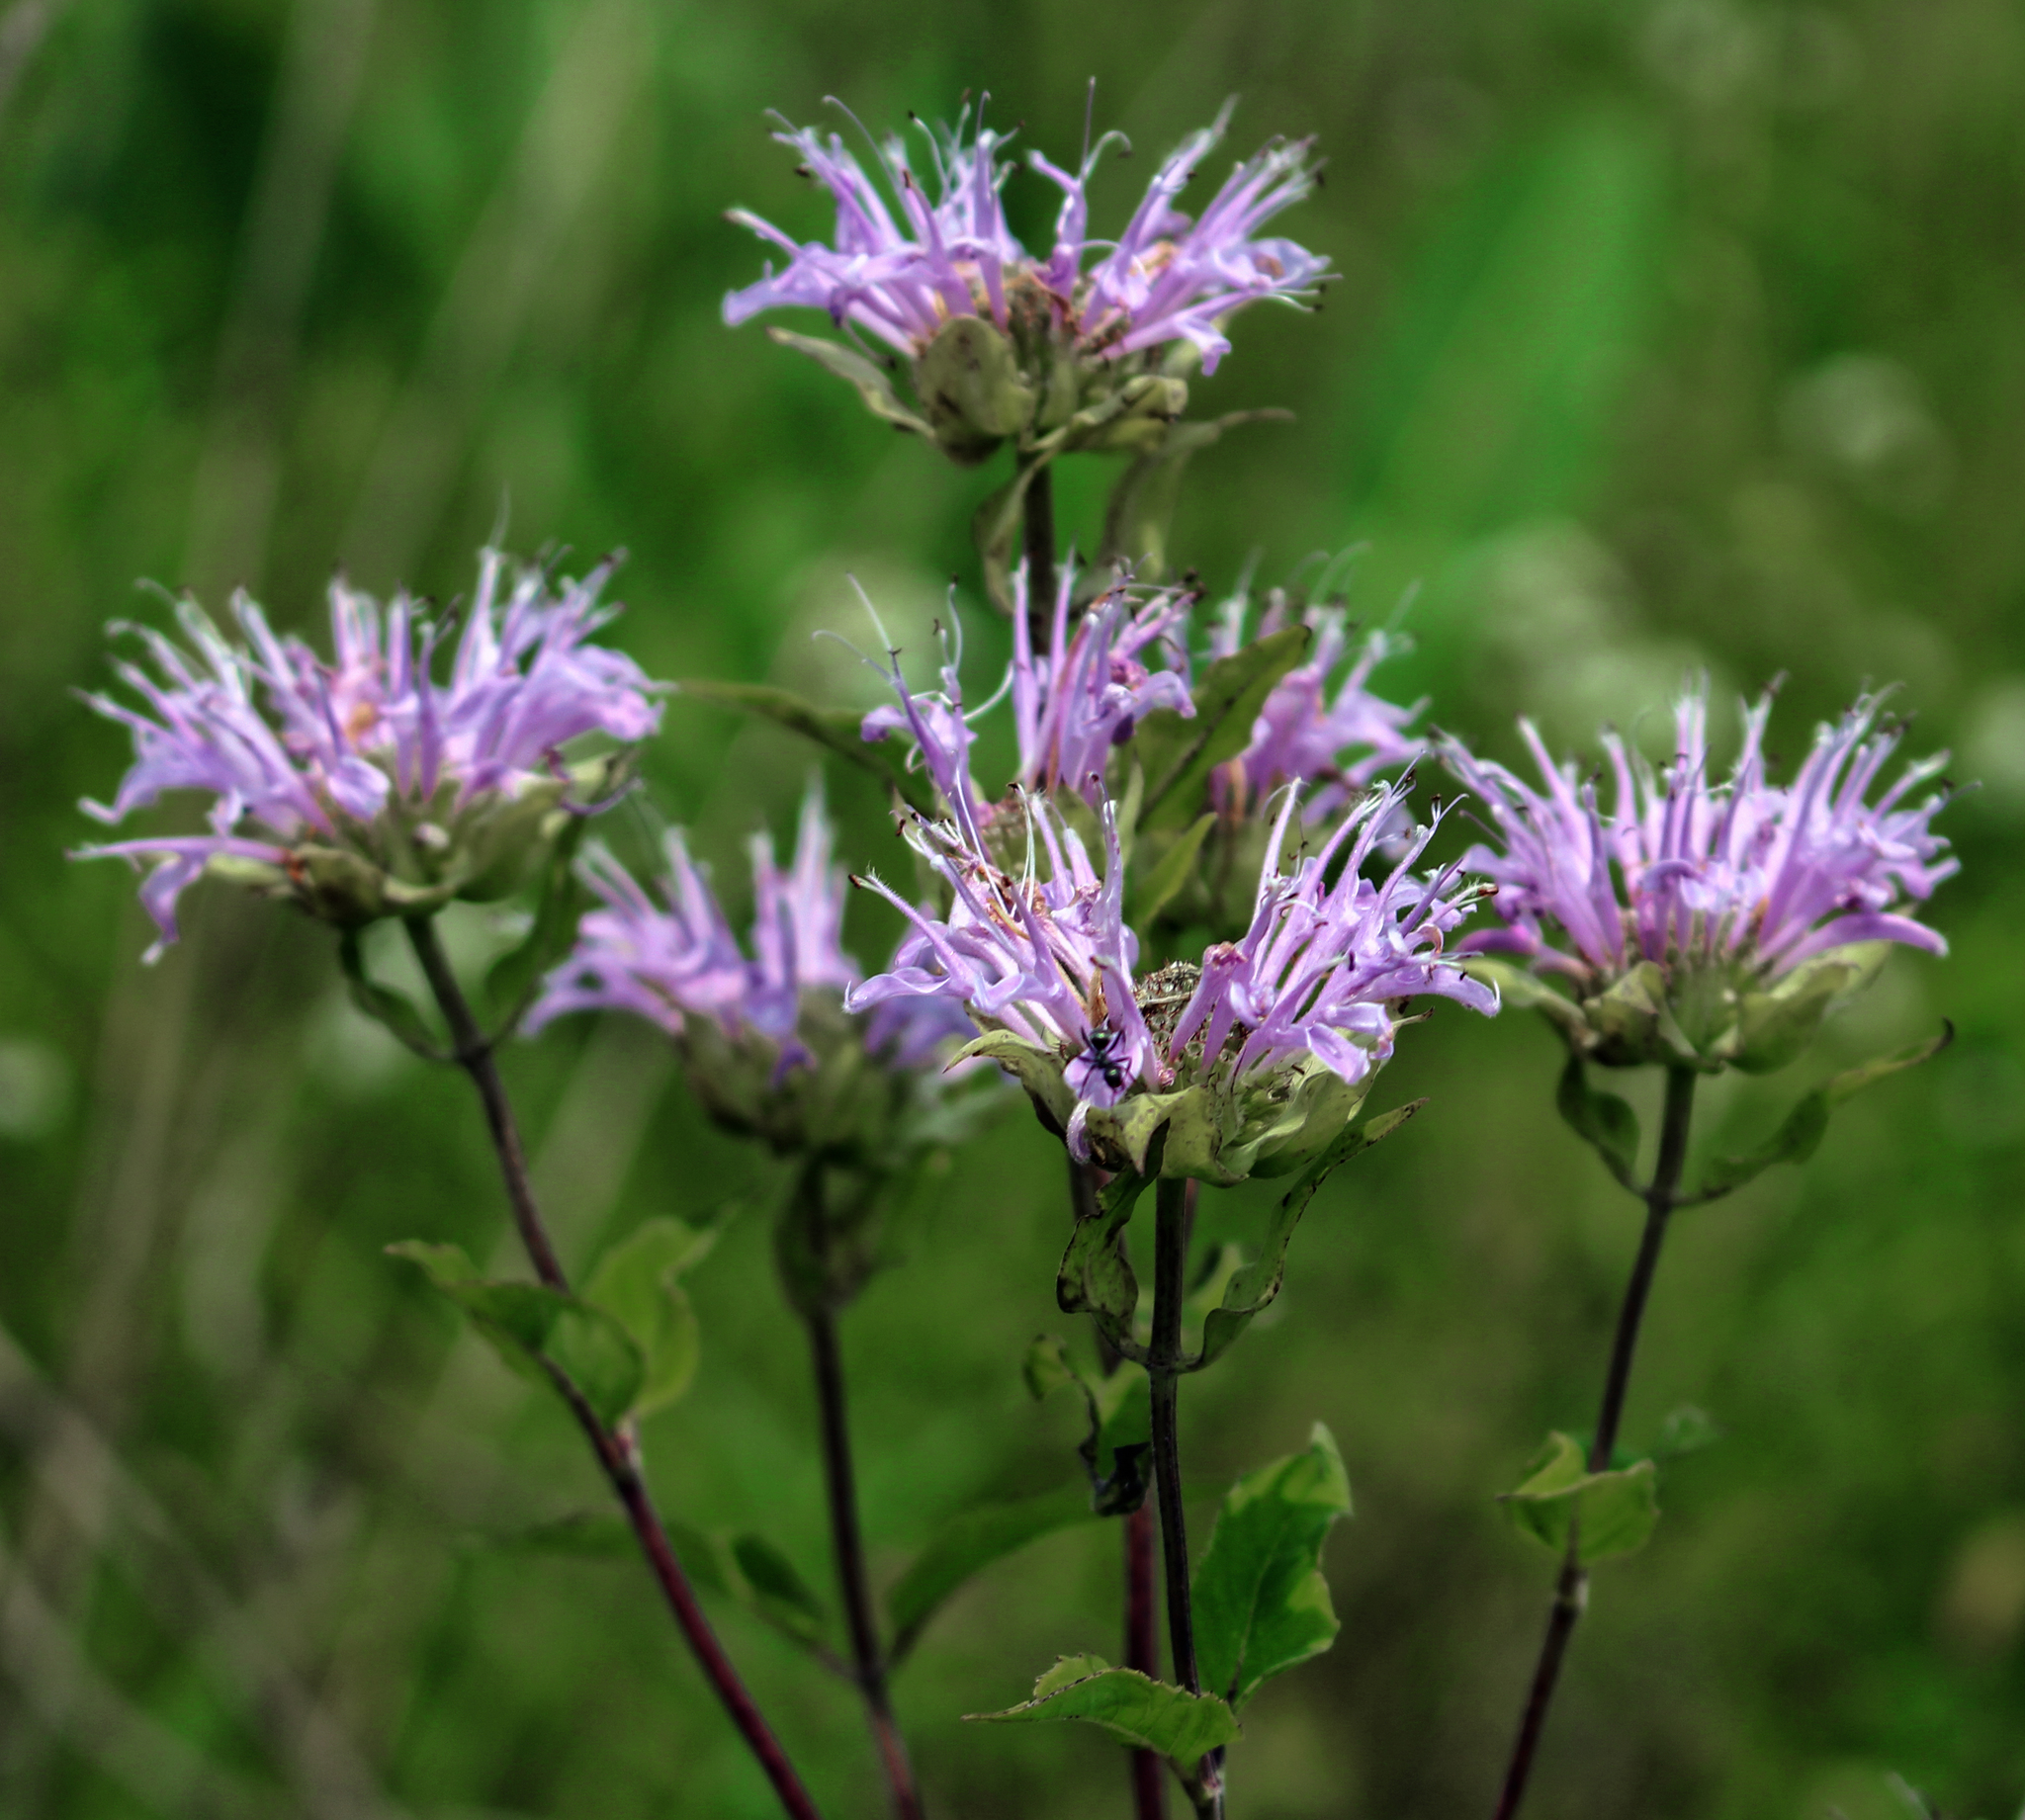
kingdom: Plantae
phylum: Tracheophyta
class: Magnoliopsida
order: Lamiales
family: Lamiaceae
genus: Monarda
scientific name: Monarda fistulosa
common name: Purple beebalm
